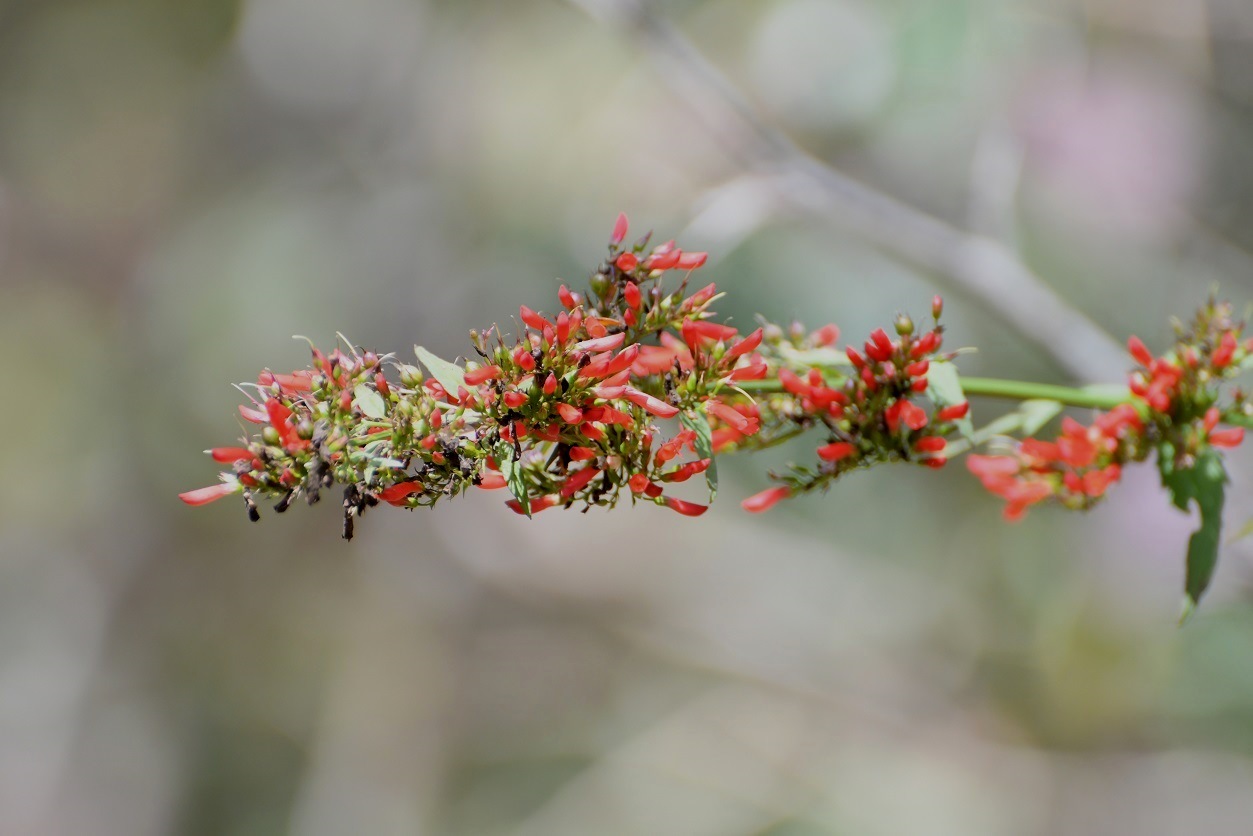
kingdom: Plantae
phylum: Tracheophyta
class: Magnoliopsida
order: Lamiales
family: Plantaginaceae
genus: Russelia
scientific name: Russelia verticillata
